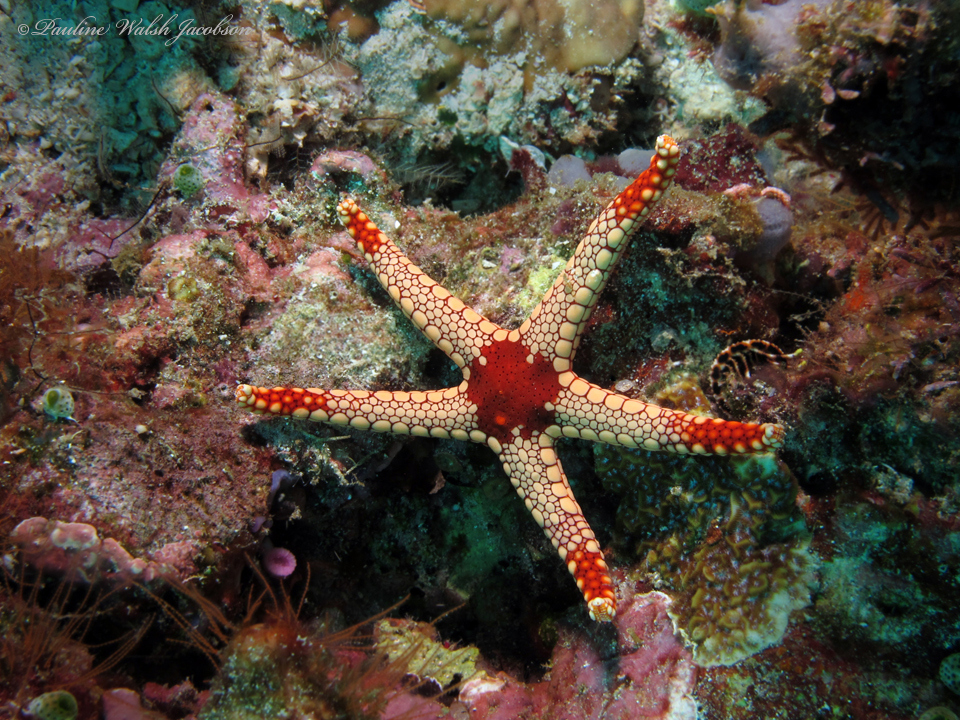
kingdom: Animalia
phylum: Echinodermata
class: Asteroidea
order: Valvatida
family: Goniasteridae
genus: Fromia
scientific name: Fromia monilis
